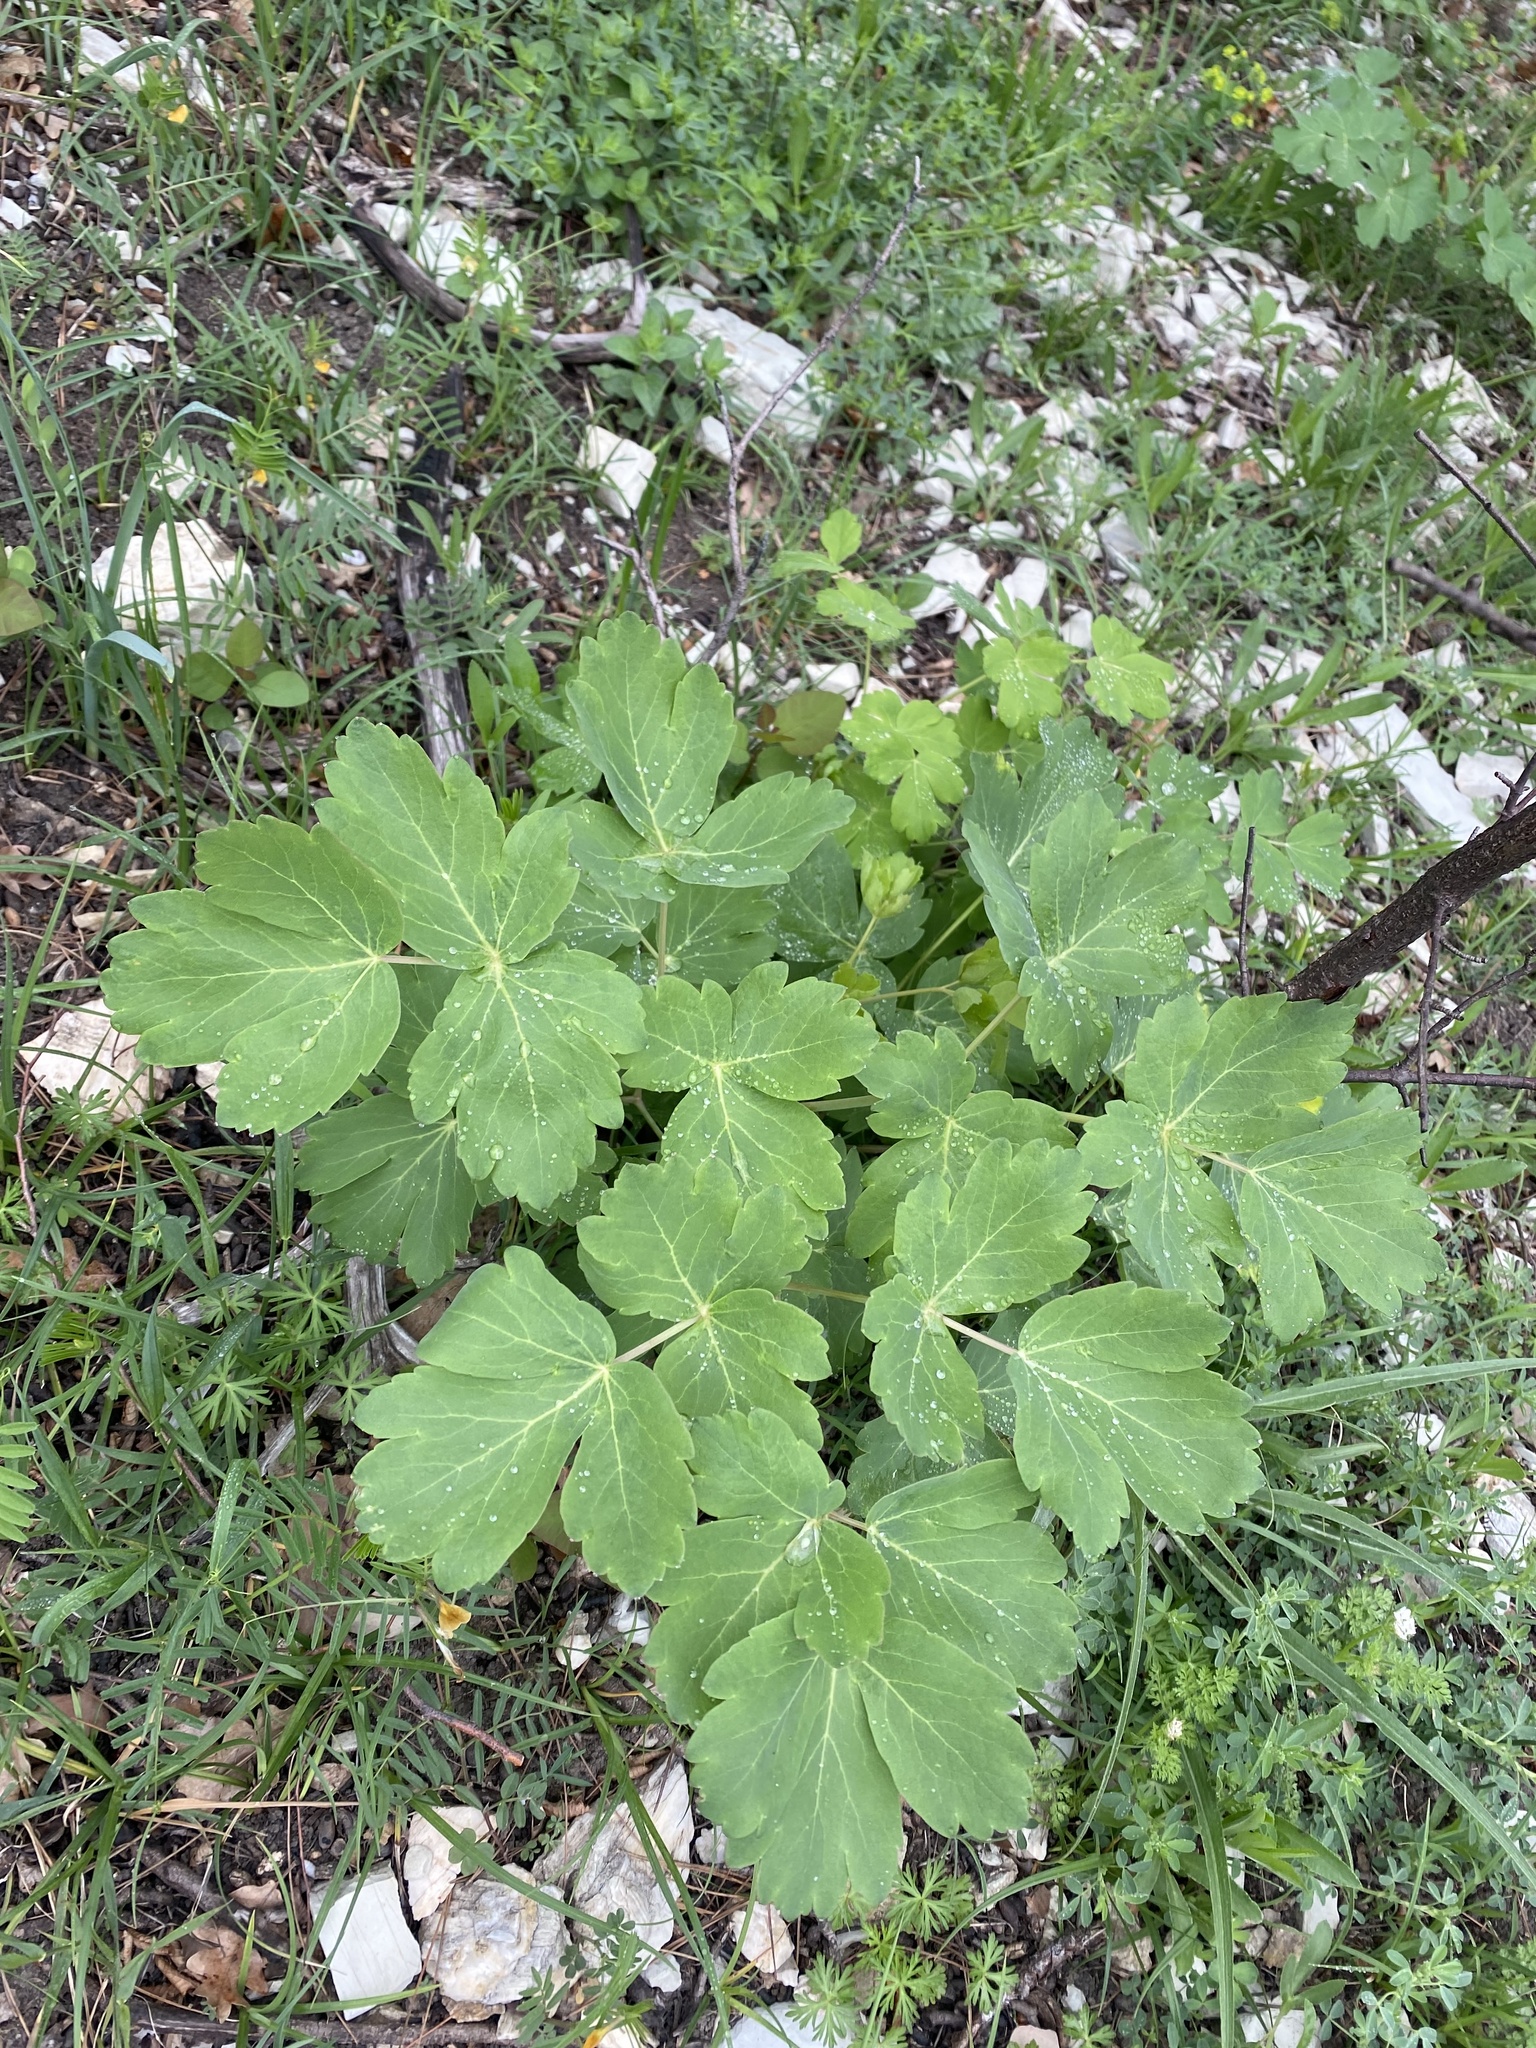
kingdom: Plantae
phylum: Tracheophyta
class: Magnoliopsida
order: Apiales
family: Apiaceae
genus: Laser
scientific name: Laser trilobum
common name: Laser
